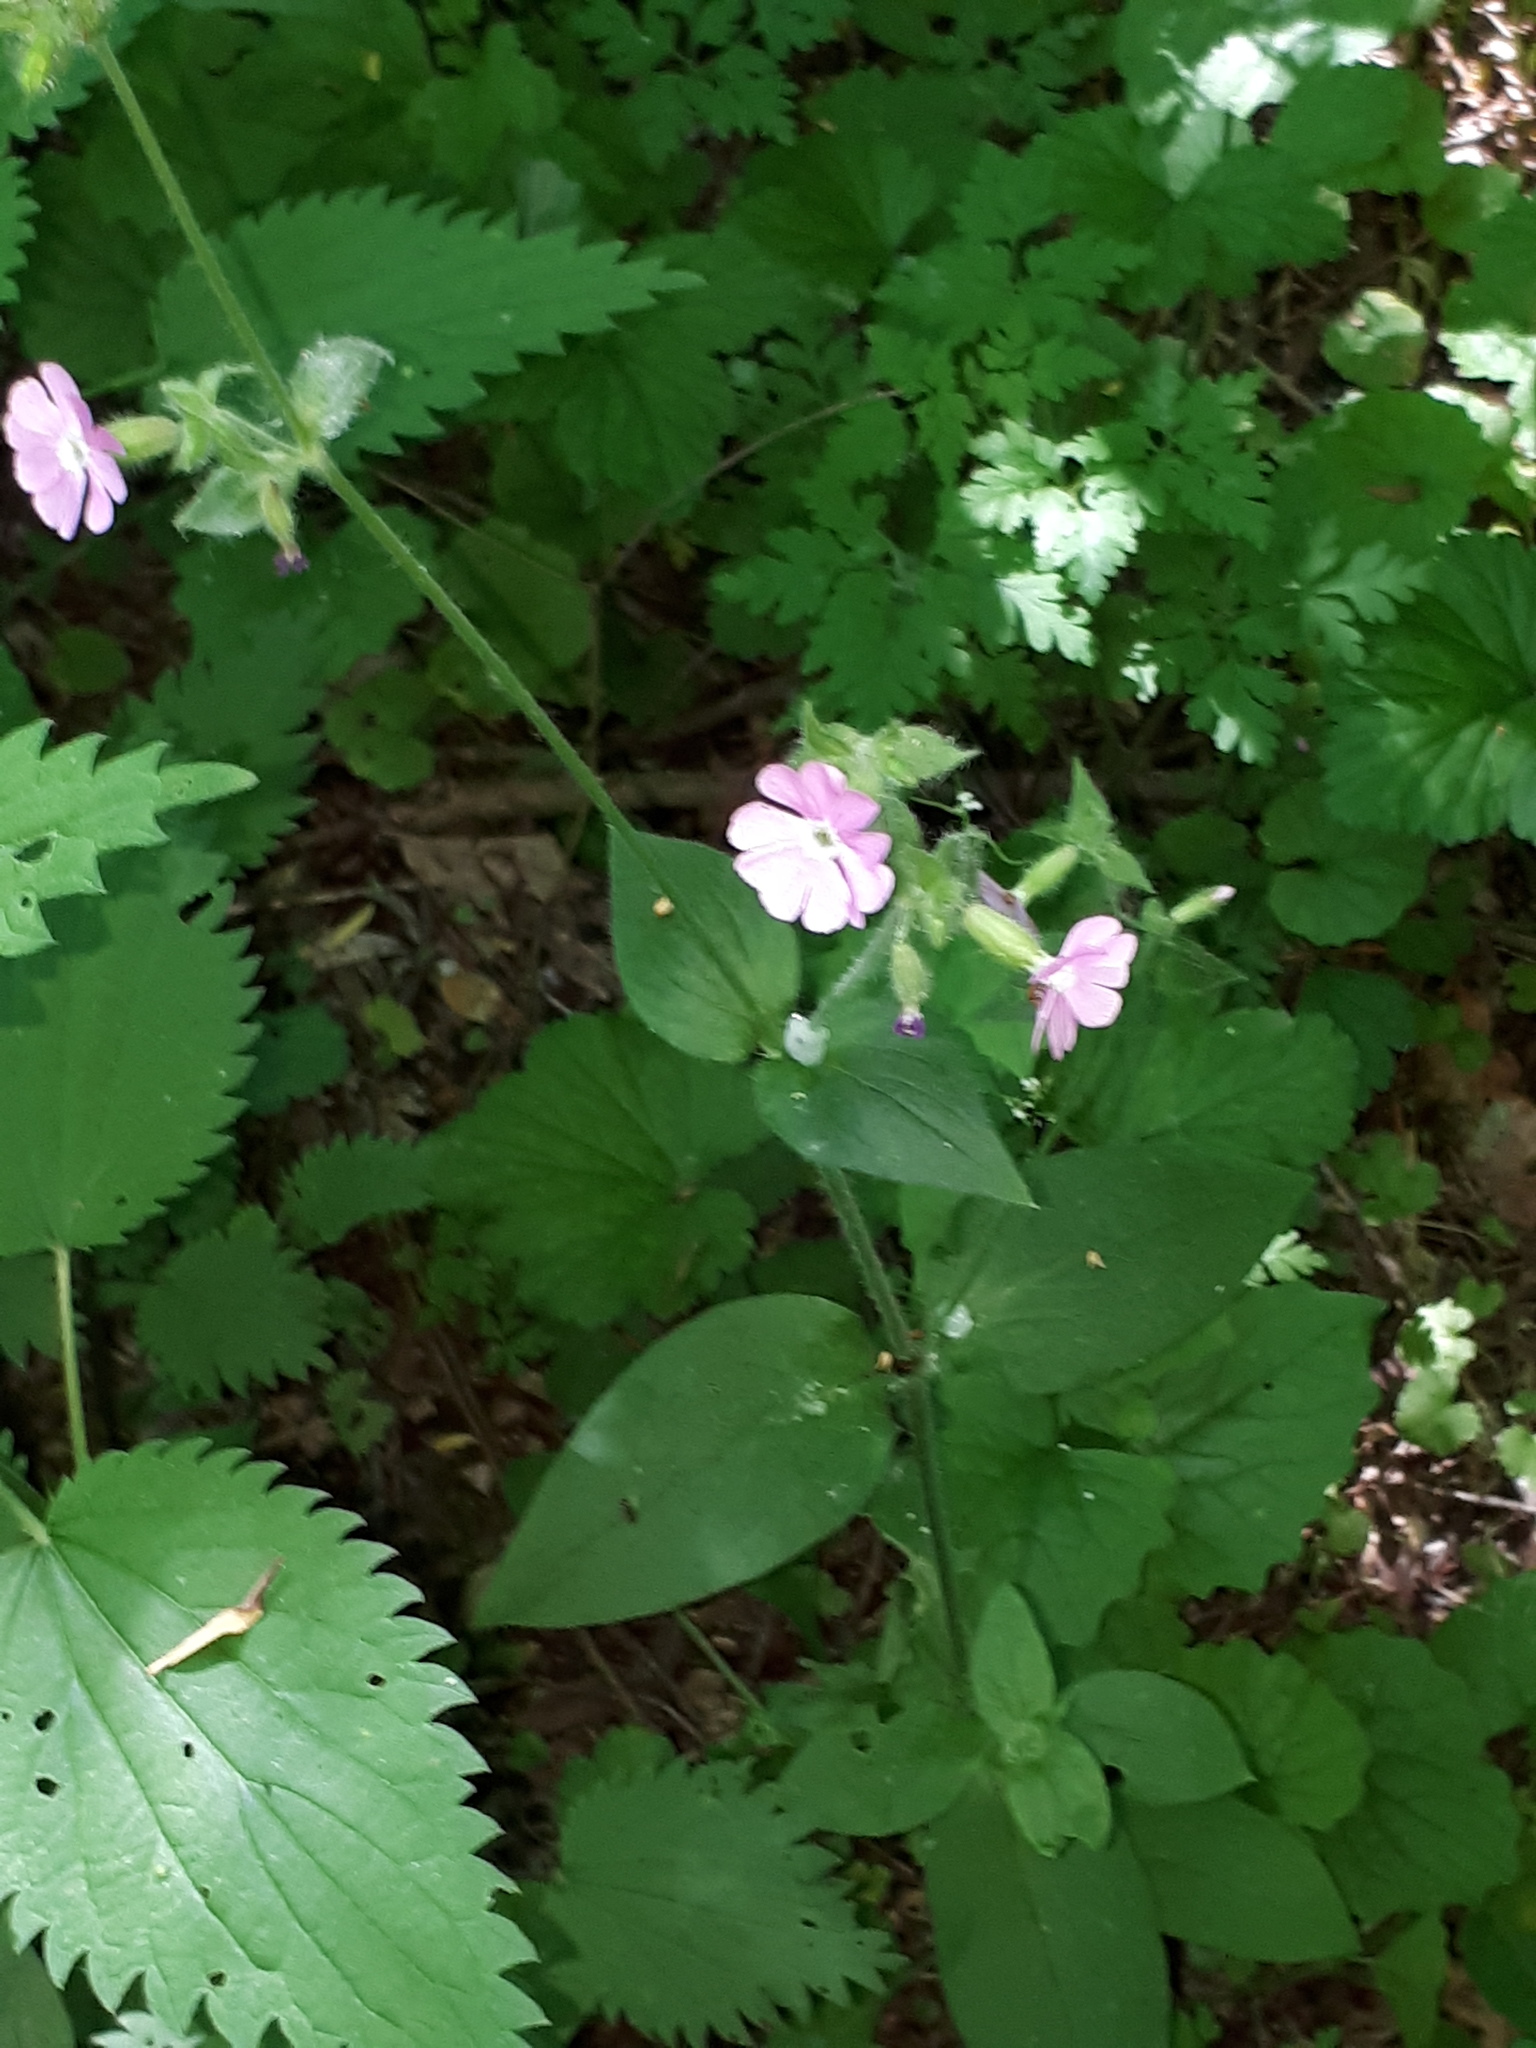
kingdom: Plantae
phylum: Tracheophyta
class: Magnoliopsida
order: Caryophyllales
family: Caryophyllaceae
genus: Silene
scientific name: Silene dioica
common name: Red campion
